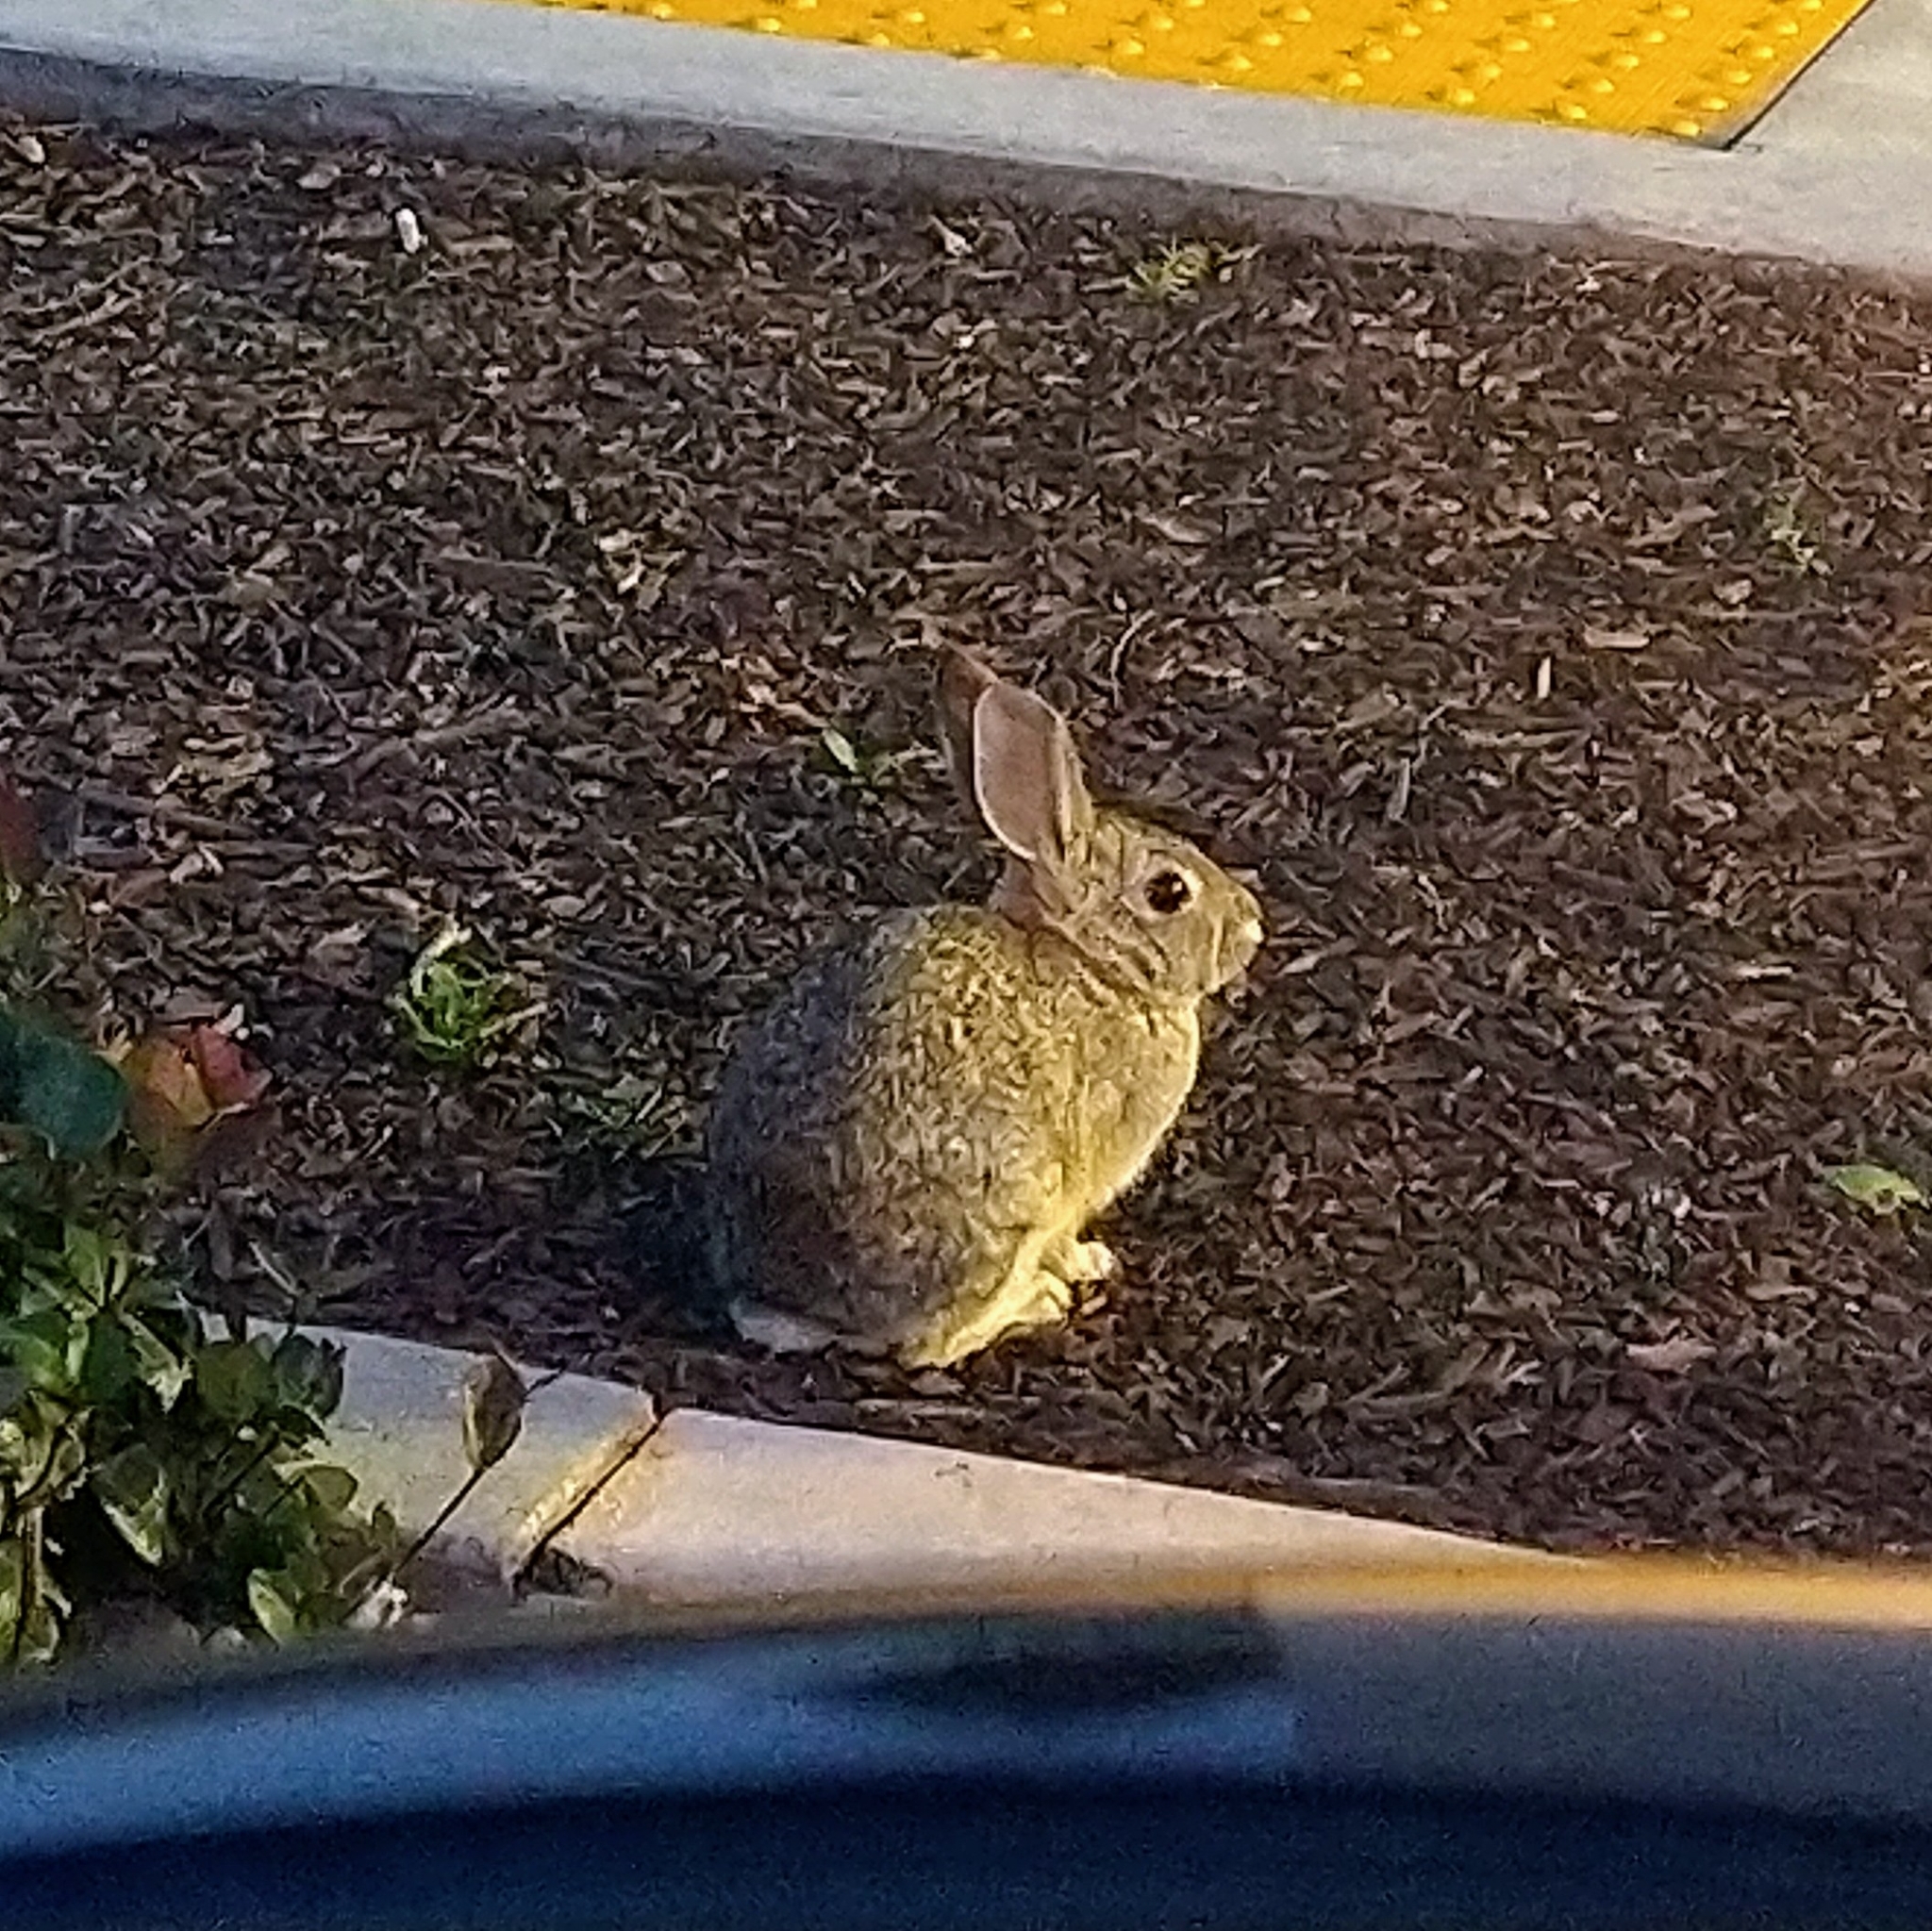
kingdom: Animalia
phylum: Chordata
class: Mammalia
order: Lagomorpha
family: Leporidae
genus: Sylvilagus
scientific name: Sylvilagus audubonii
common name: Desert cottontail
